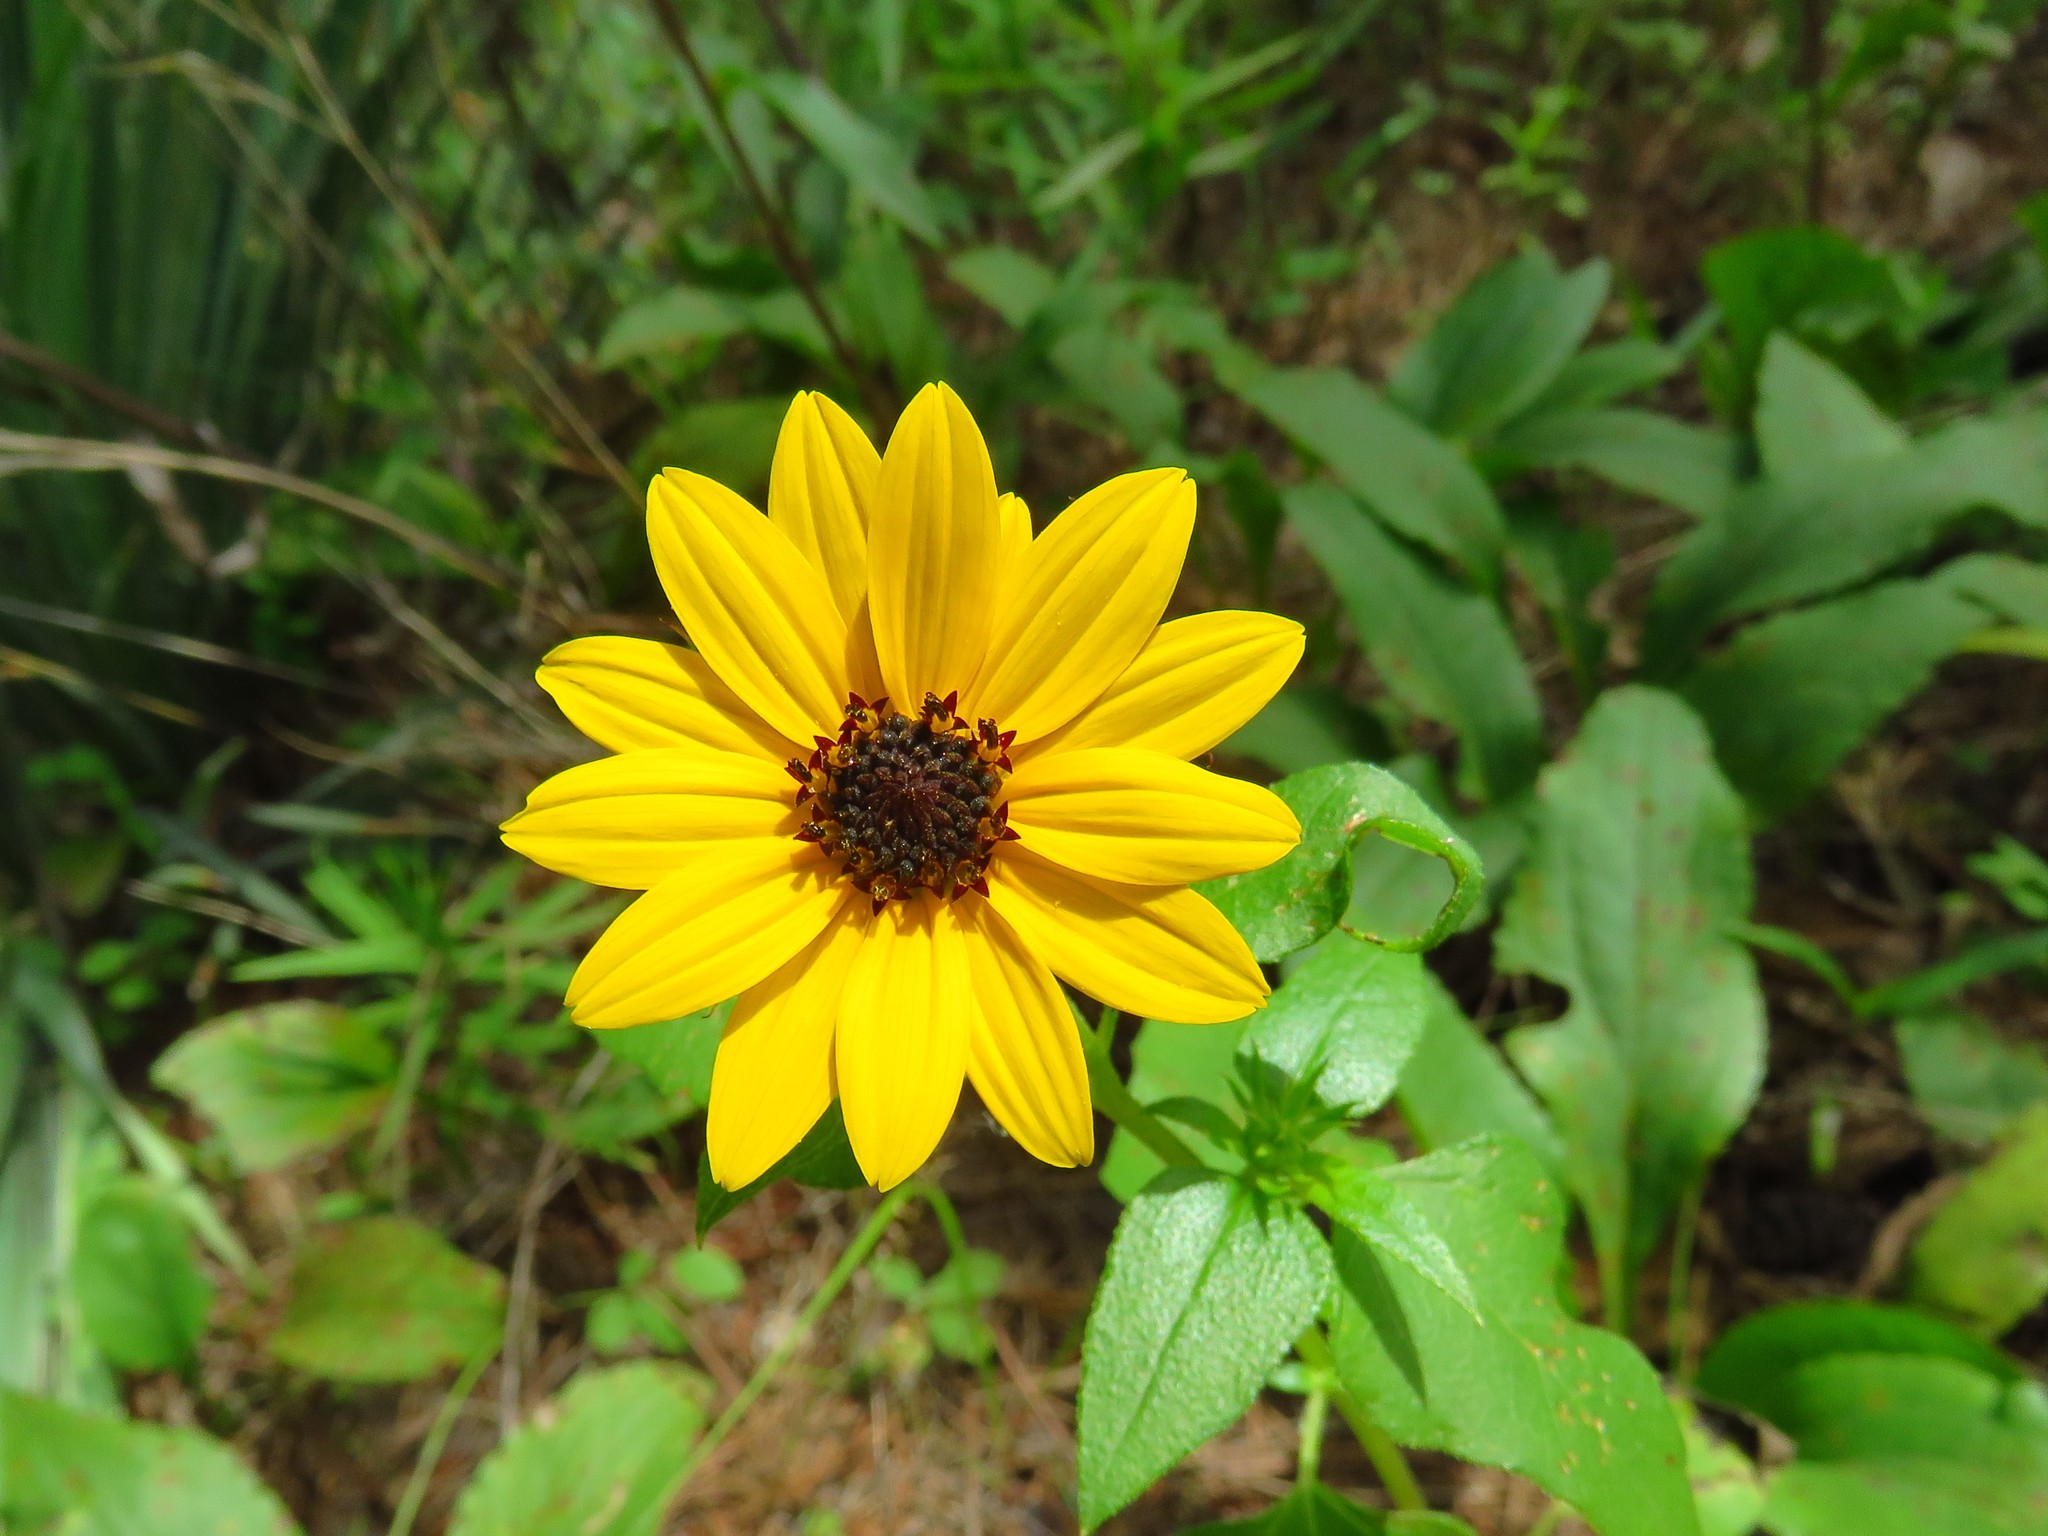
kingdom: Plantae
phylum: Tracheophyta
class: Magnoliopsida
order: Asterales
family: Asteraceae
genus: Helianthus
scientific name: Helianthus debilis
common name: Weak sunflower
